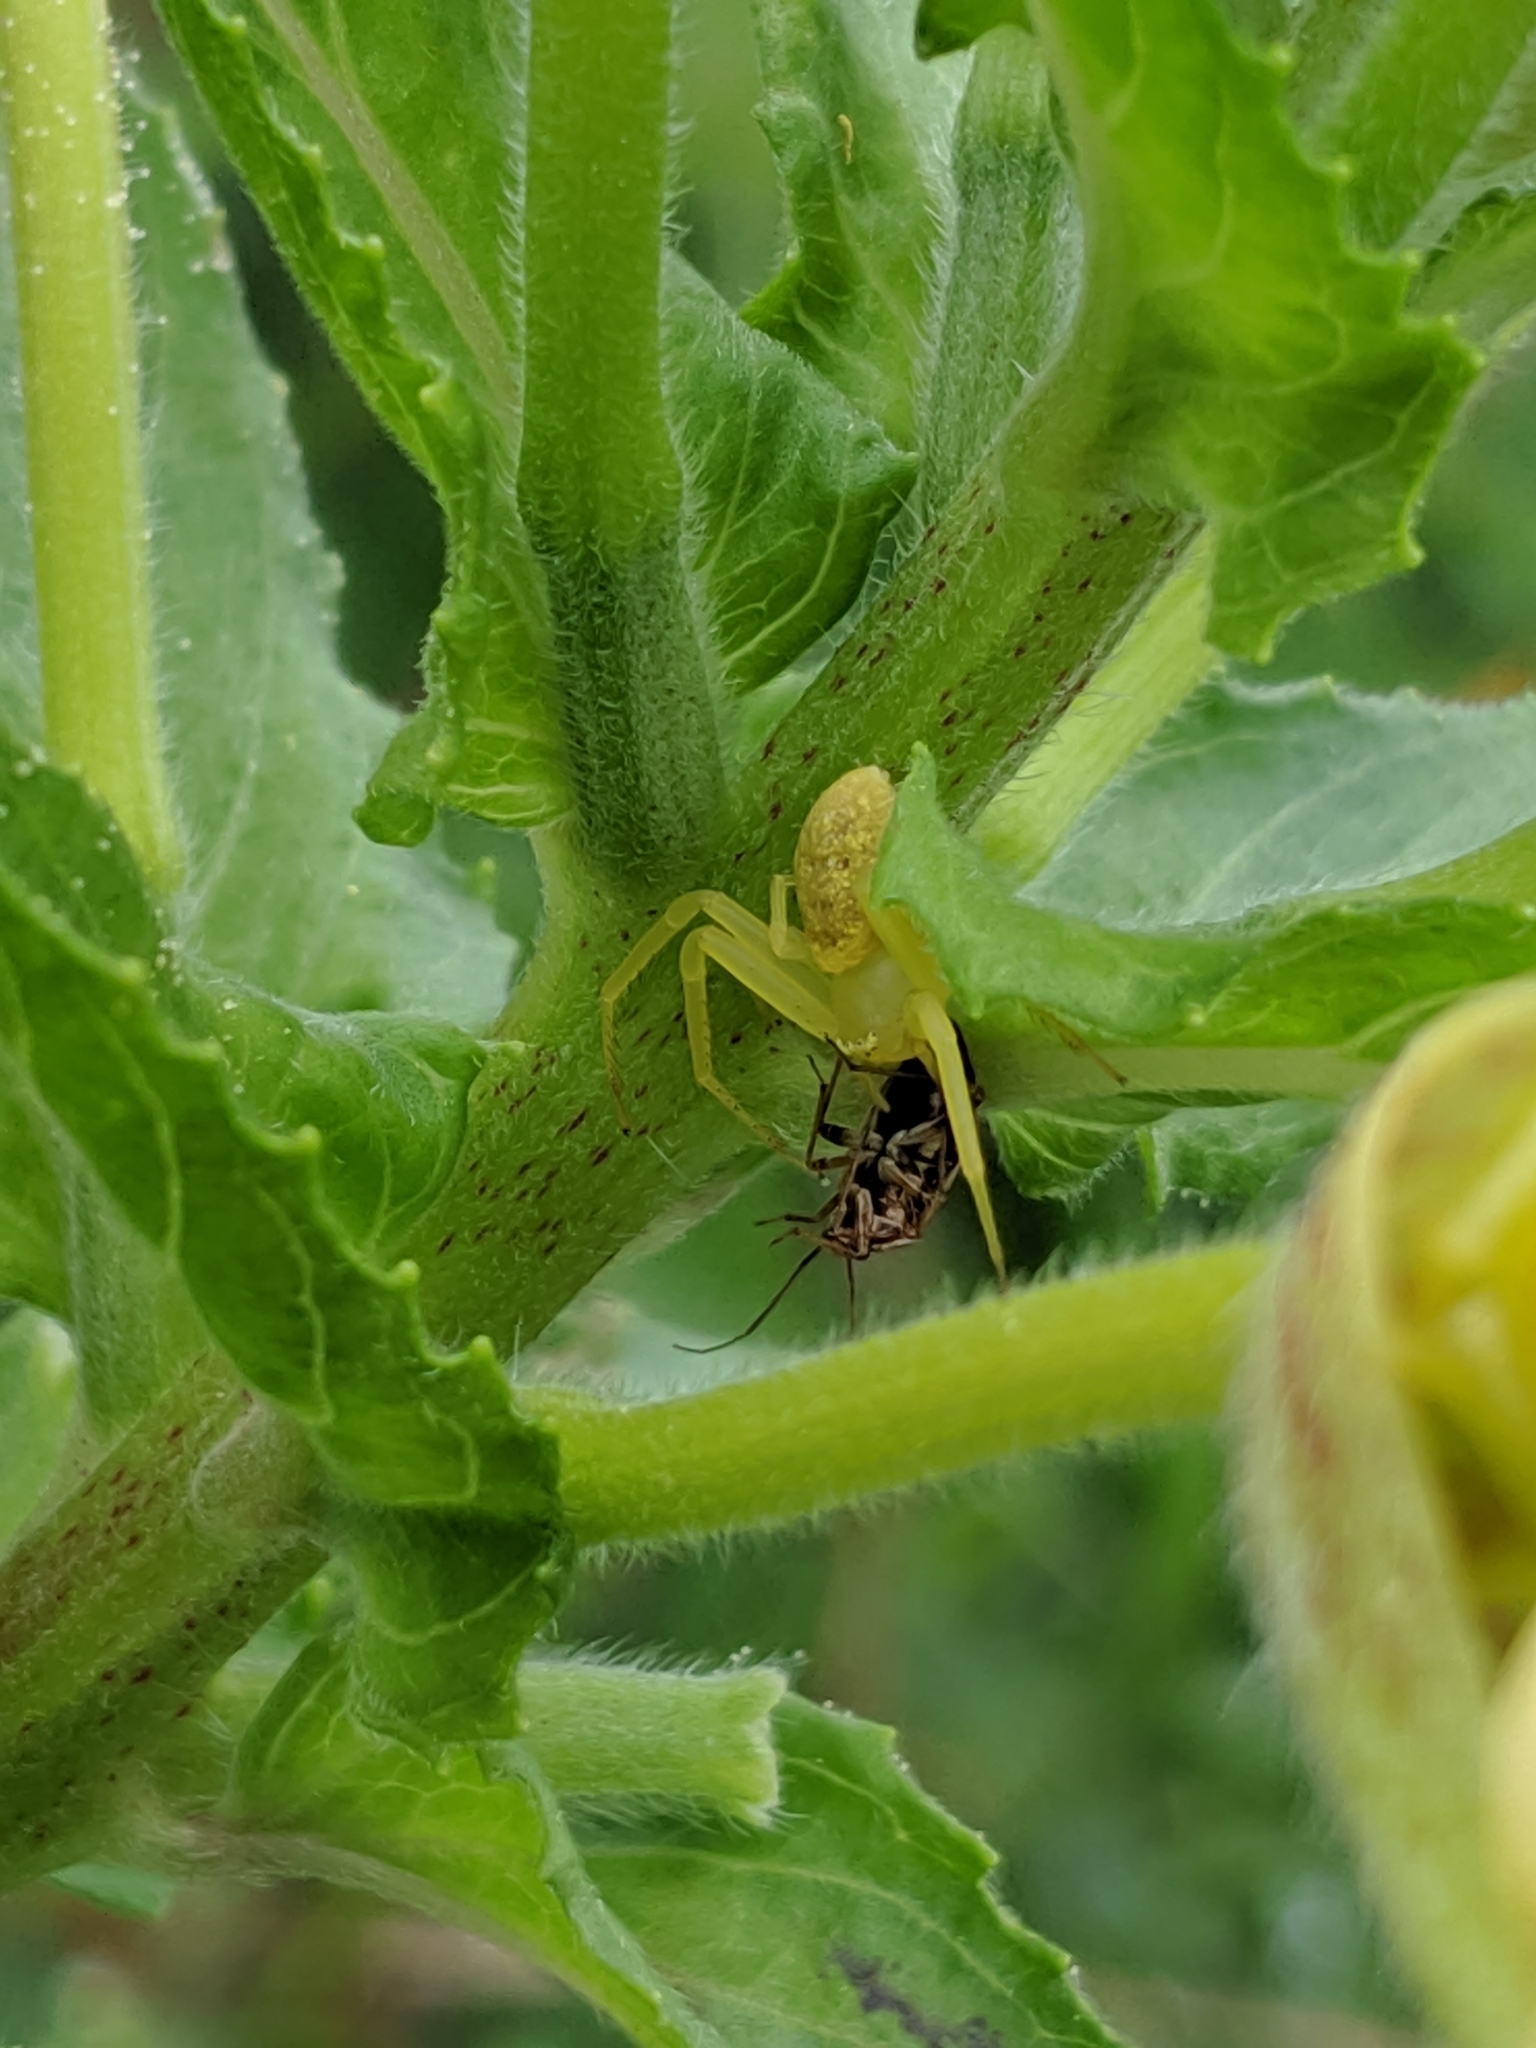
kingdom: Animalia
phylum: Arthropoda
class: Arachnida
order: Araneae
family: Thomisidae
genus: Misumessus
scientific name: Misumessus oblongus
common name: American green crab spider
